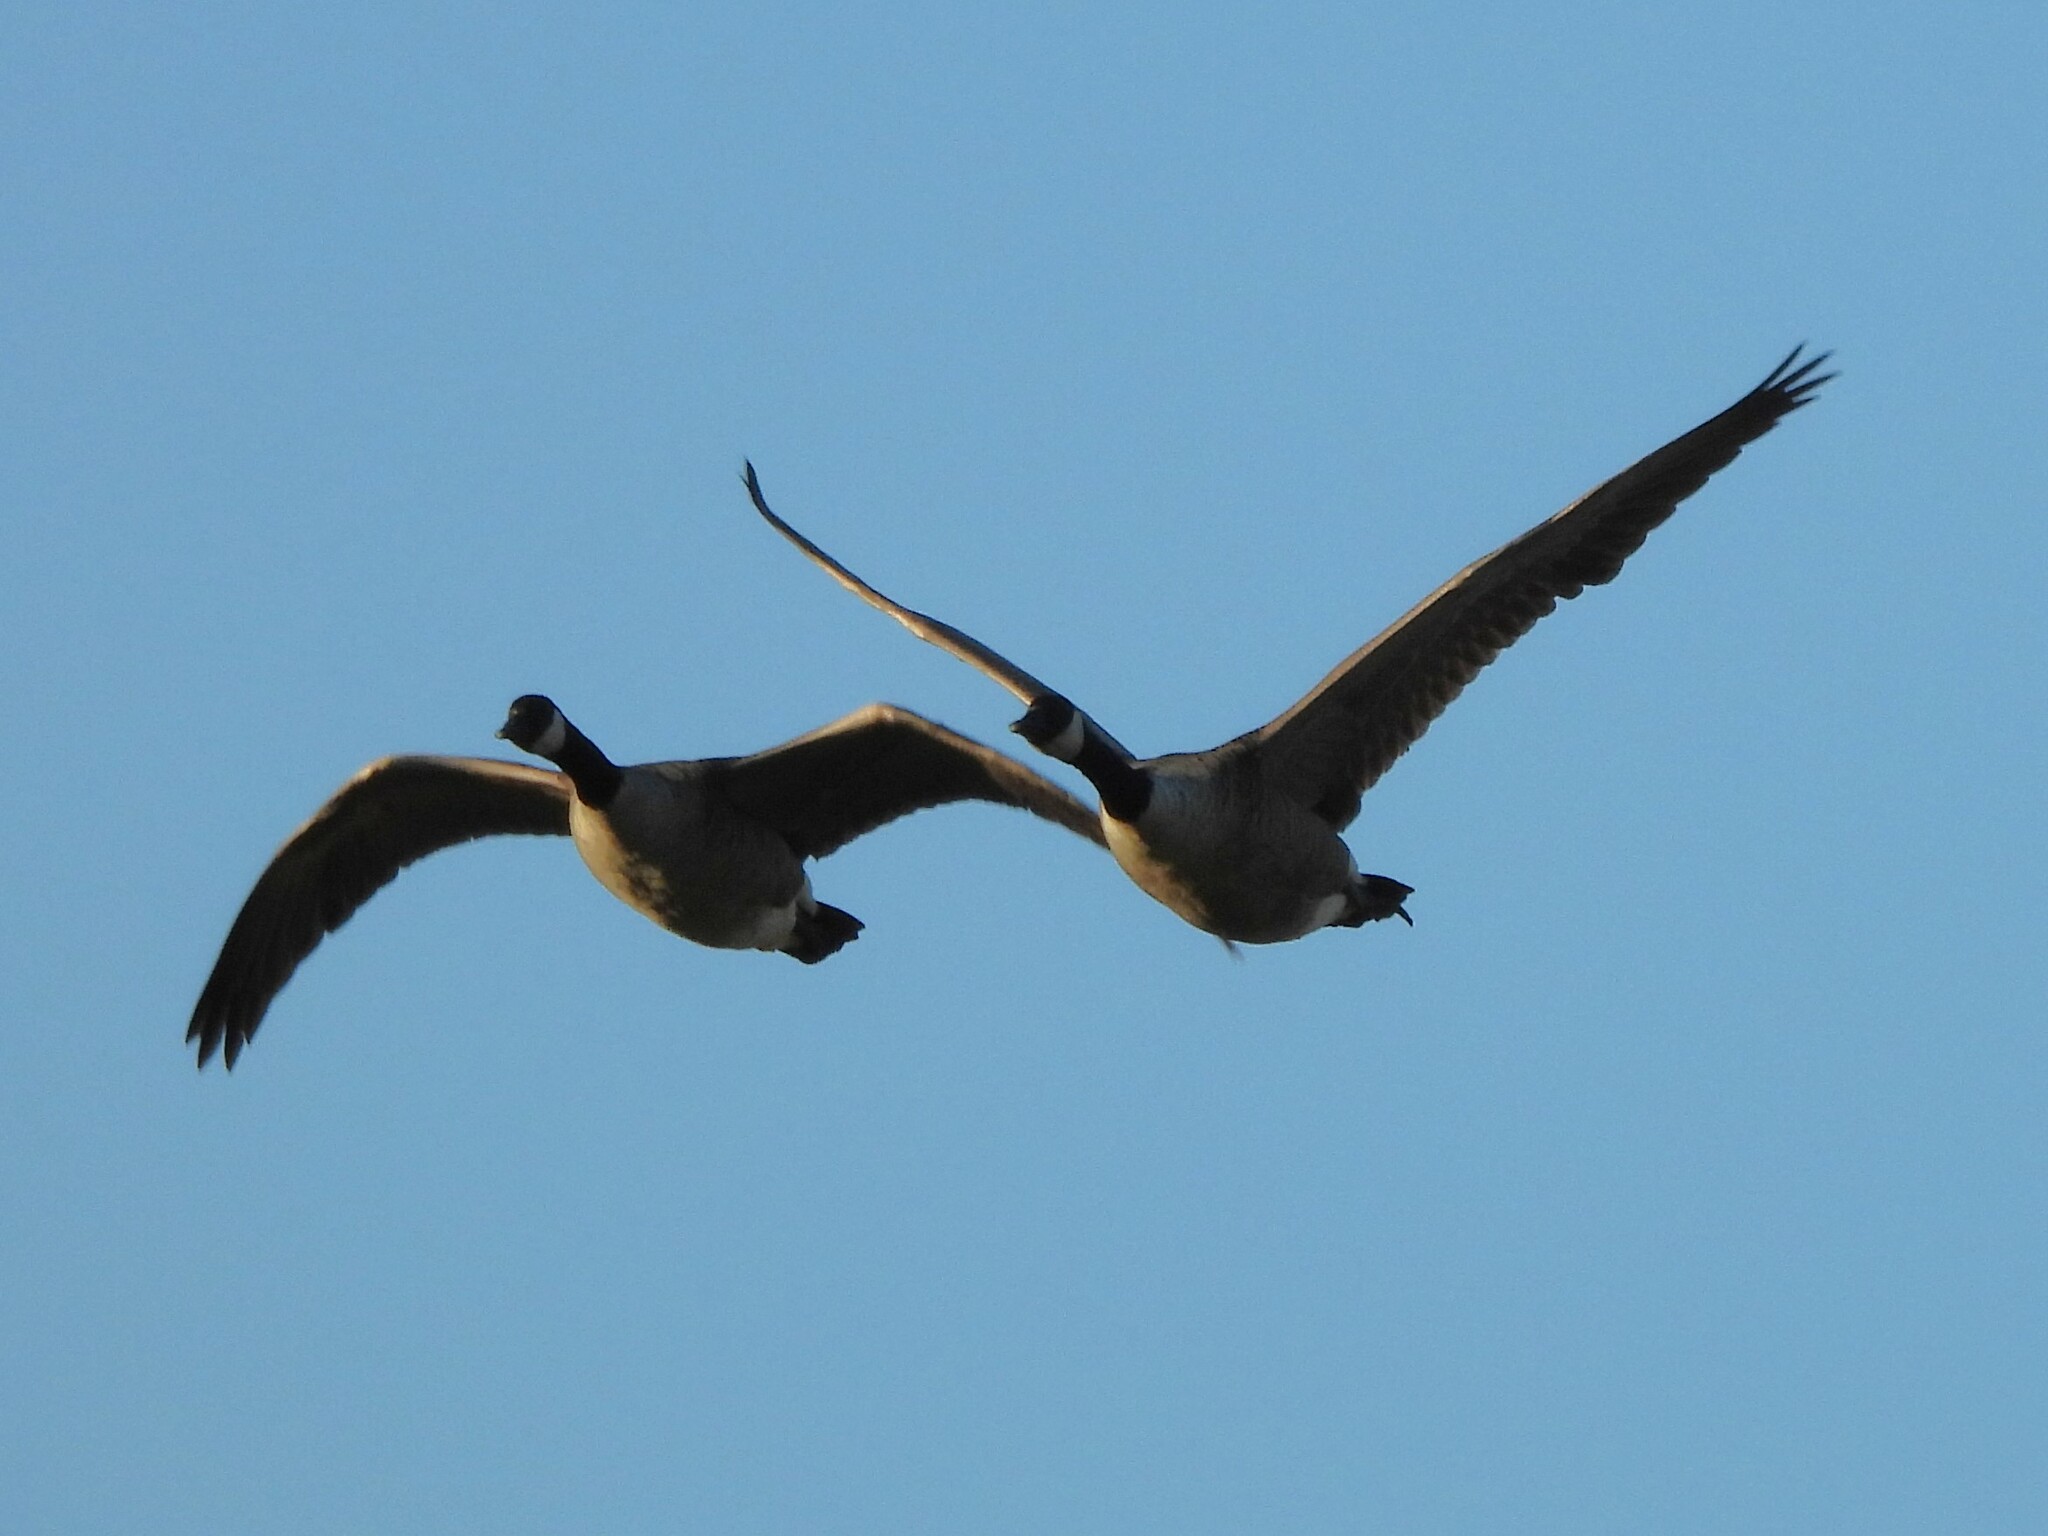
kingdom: Animalia
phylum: Chordata
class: Aves
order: Anseriformes
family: Anatidae
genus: Branta
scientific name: Branta canadensis
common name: Canada goose
